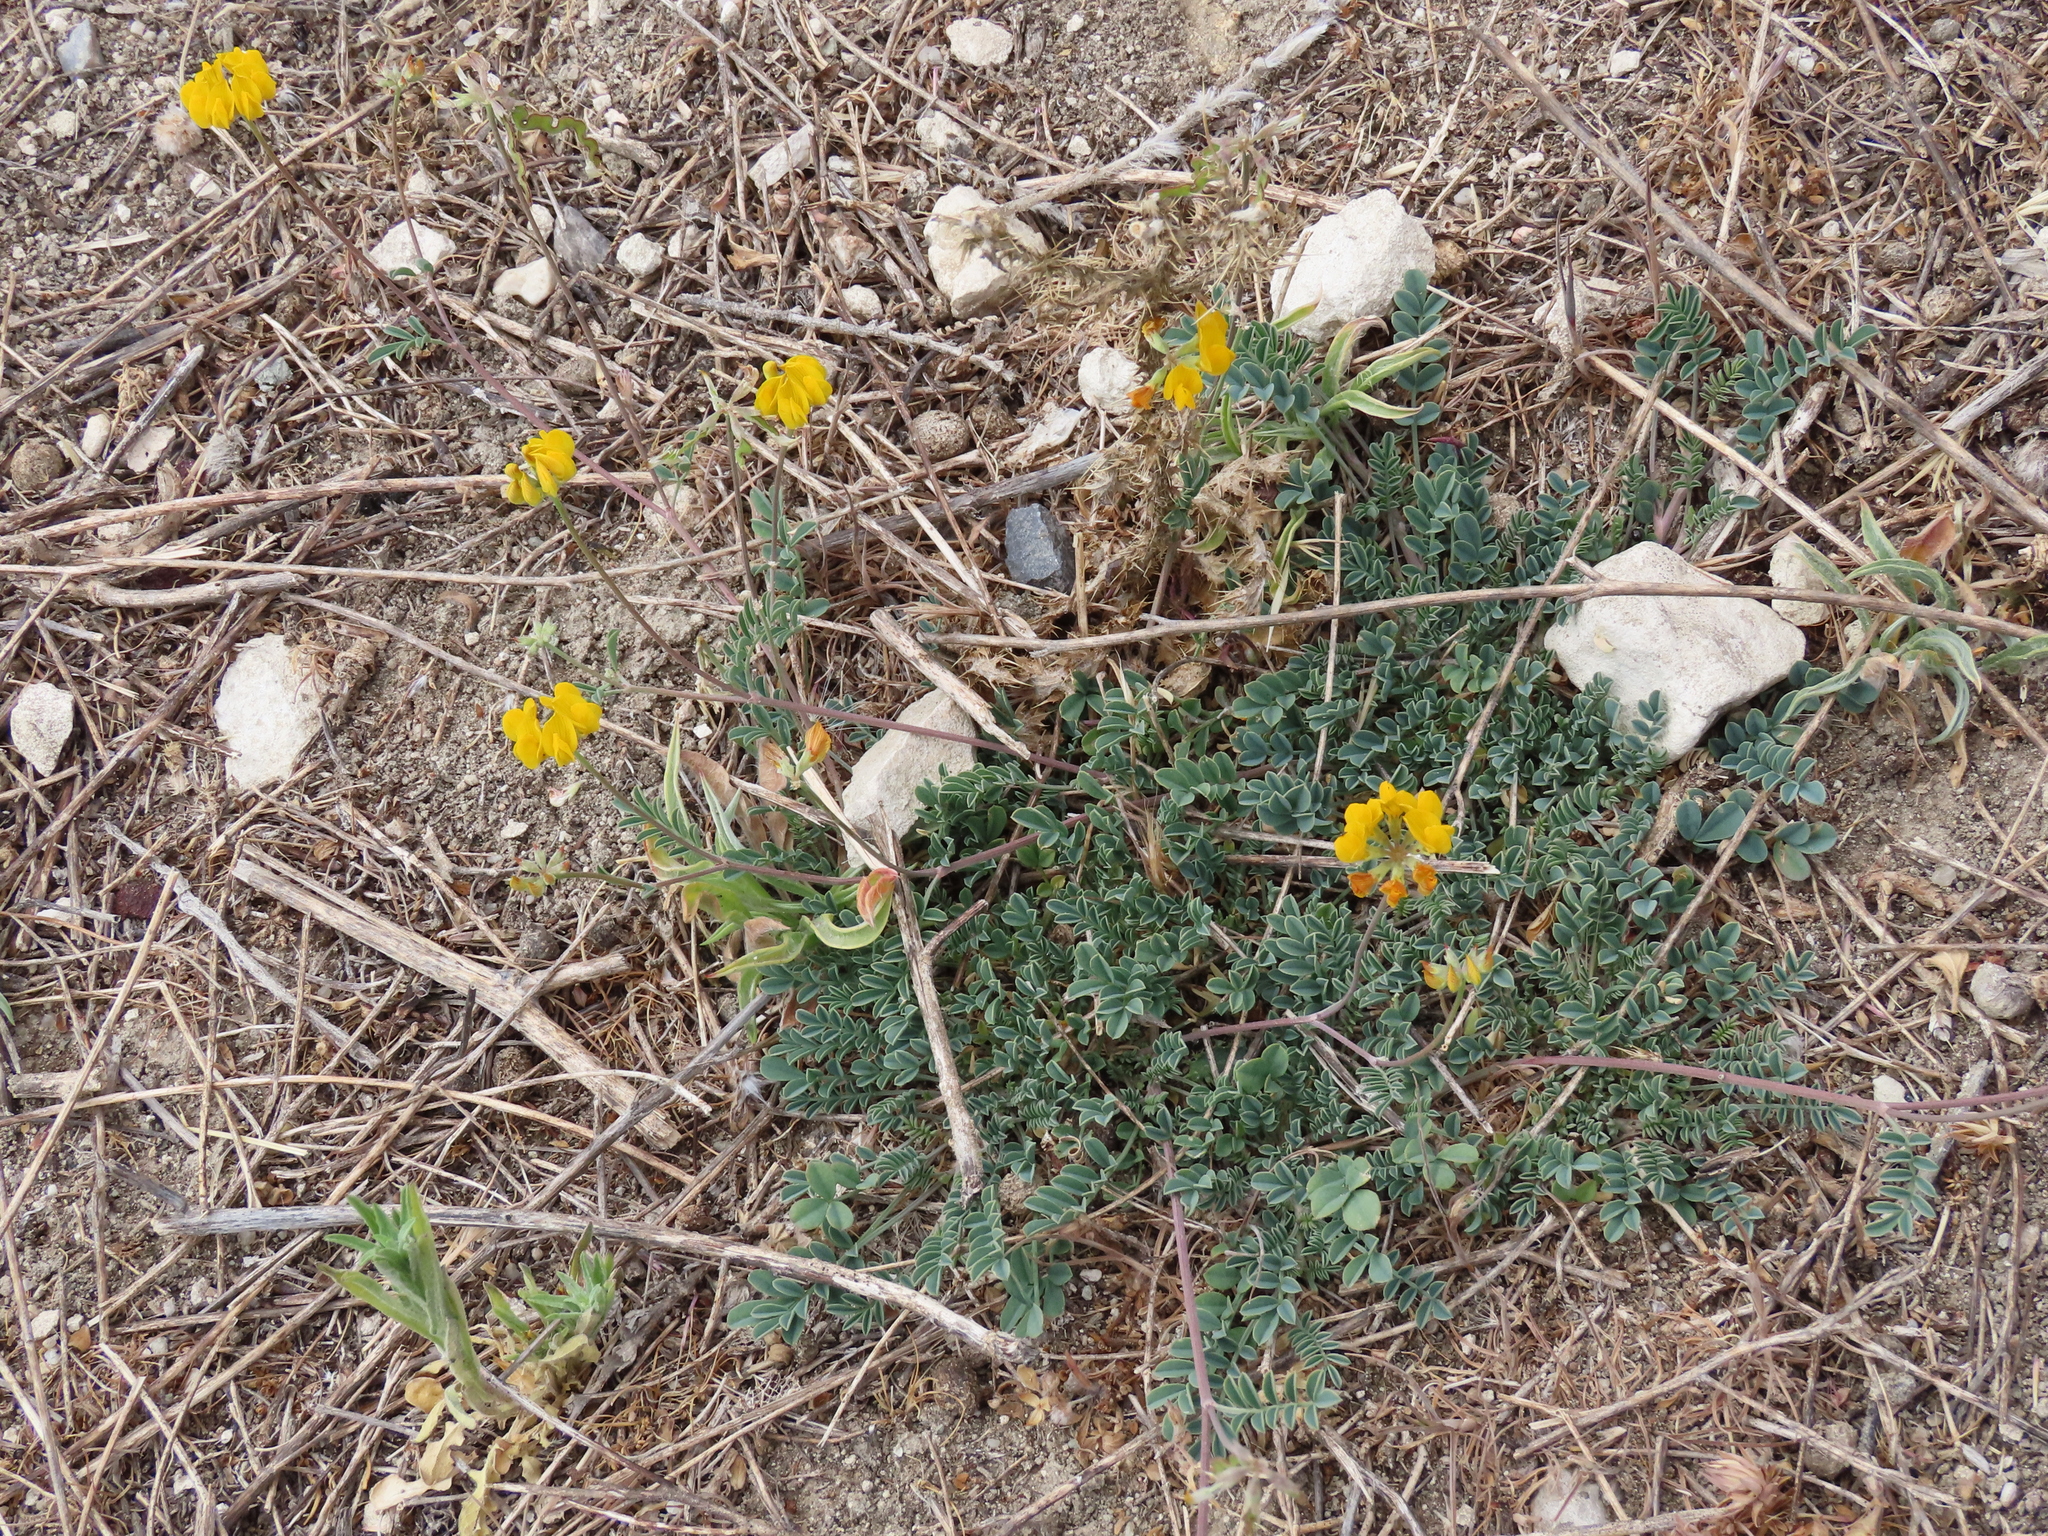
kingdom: Plantae
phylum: Tracheophyta
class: Magnoliopsida
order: Fabales
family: Fabaceae
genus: Hippocrepis
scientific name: Hippocrepis comosa
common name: Horseshoe vetch
